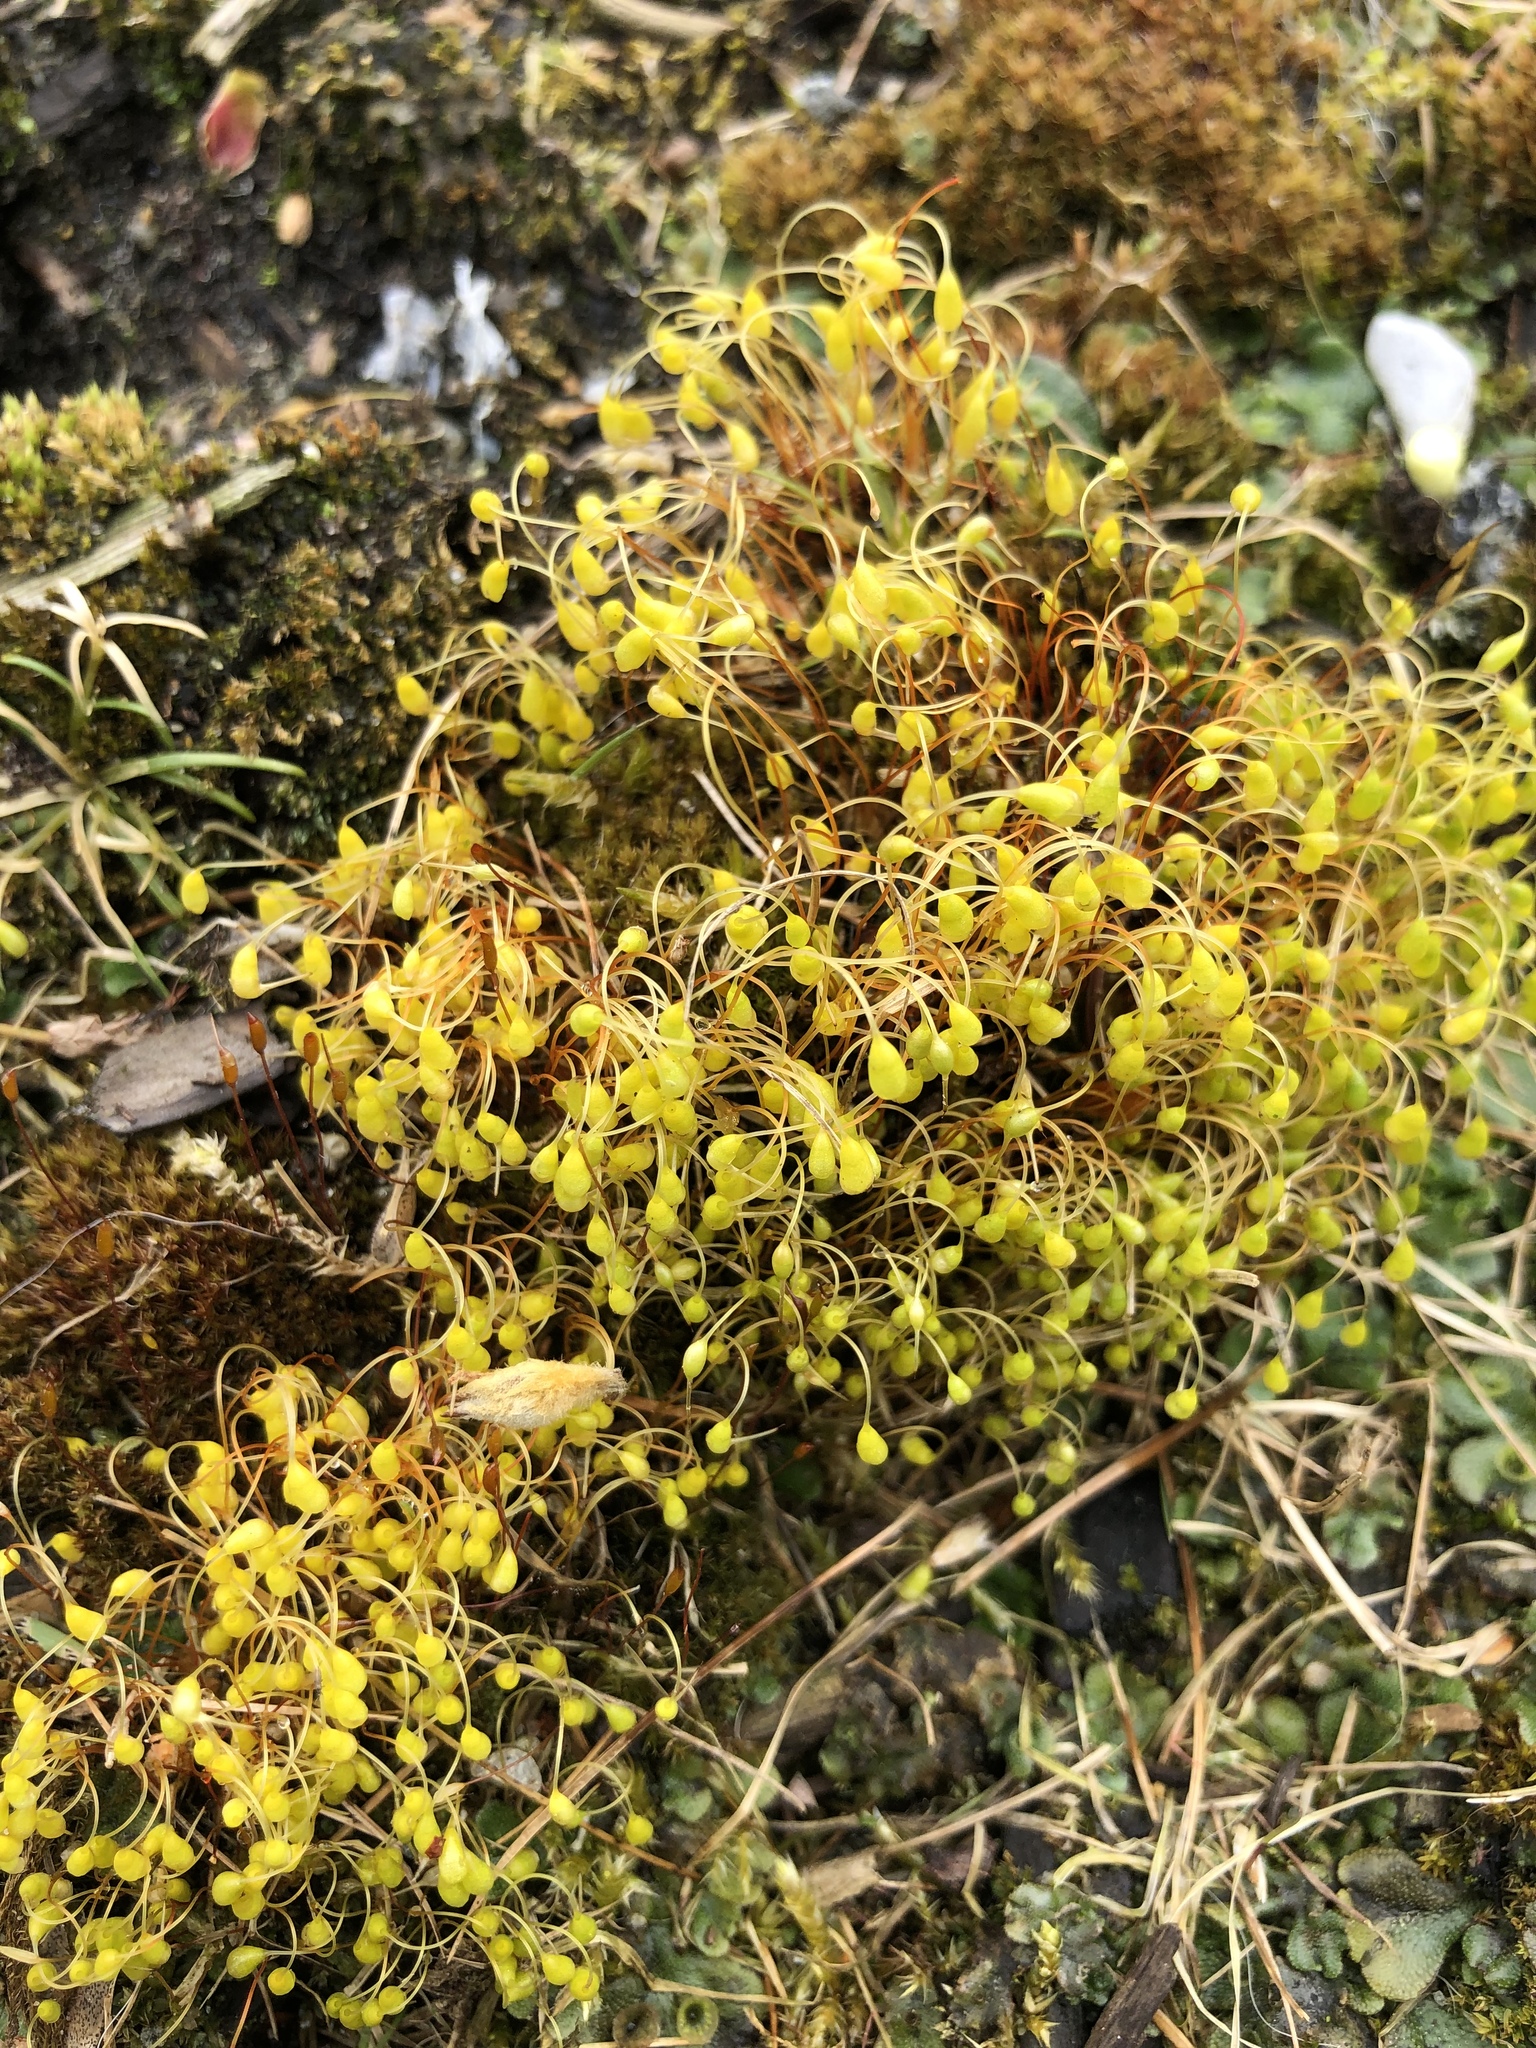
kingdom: Plantae
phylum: Bryophyta
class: Bryopsida
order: Funariales
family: Funariaceae
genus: Funaria
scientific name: Funaria hygrometrica
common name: Common cord moss
